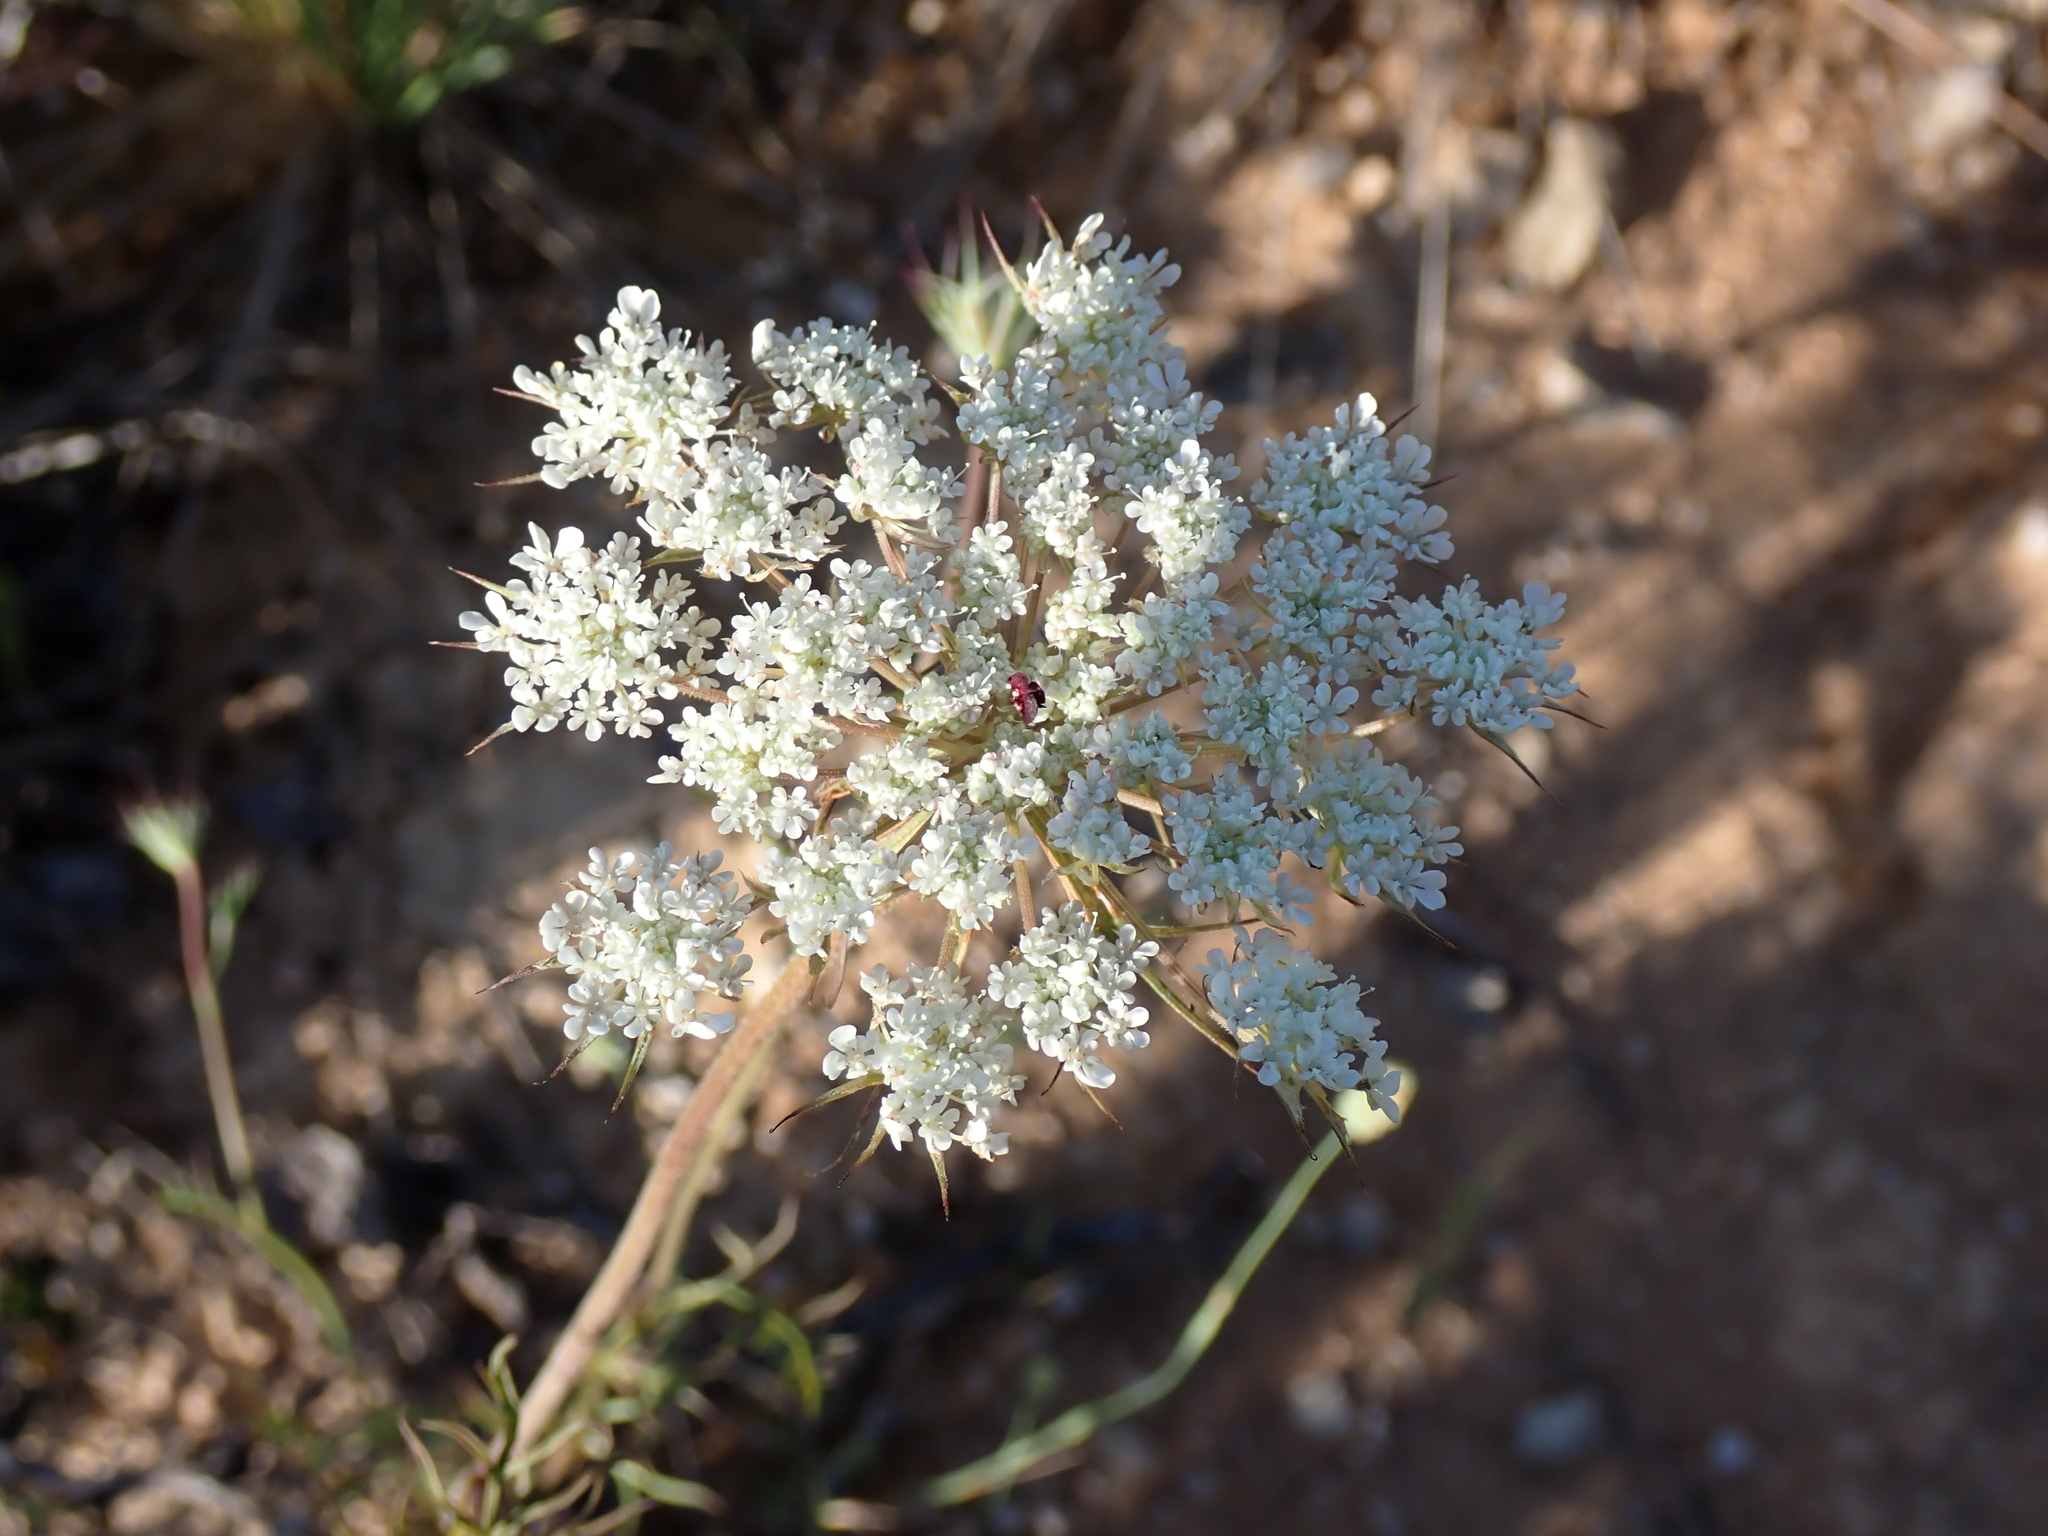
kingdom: Plantae
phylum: Tracheophyta
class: Magnoliopsida
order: Apiales
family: Apiaceae
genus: Daucus
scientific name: Daucus carota
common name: Wild carrot
